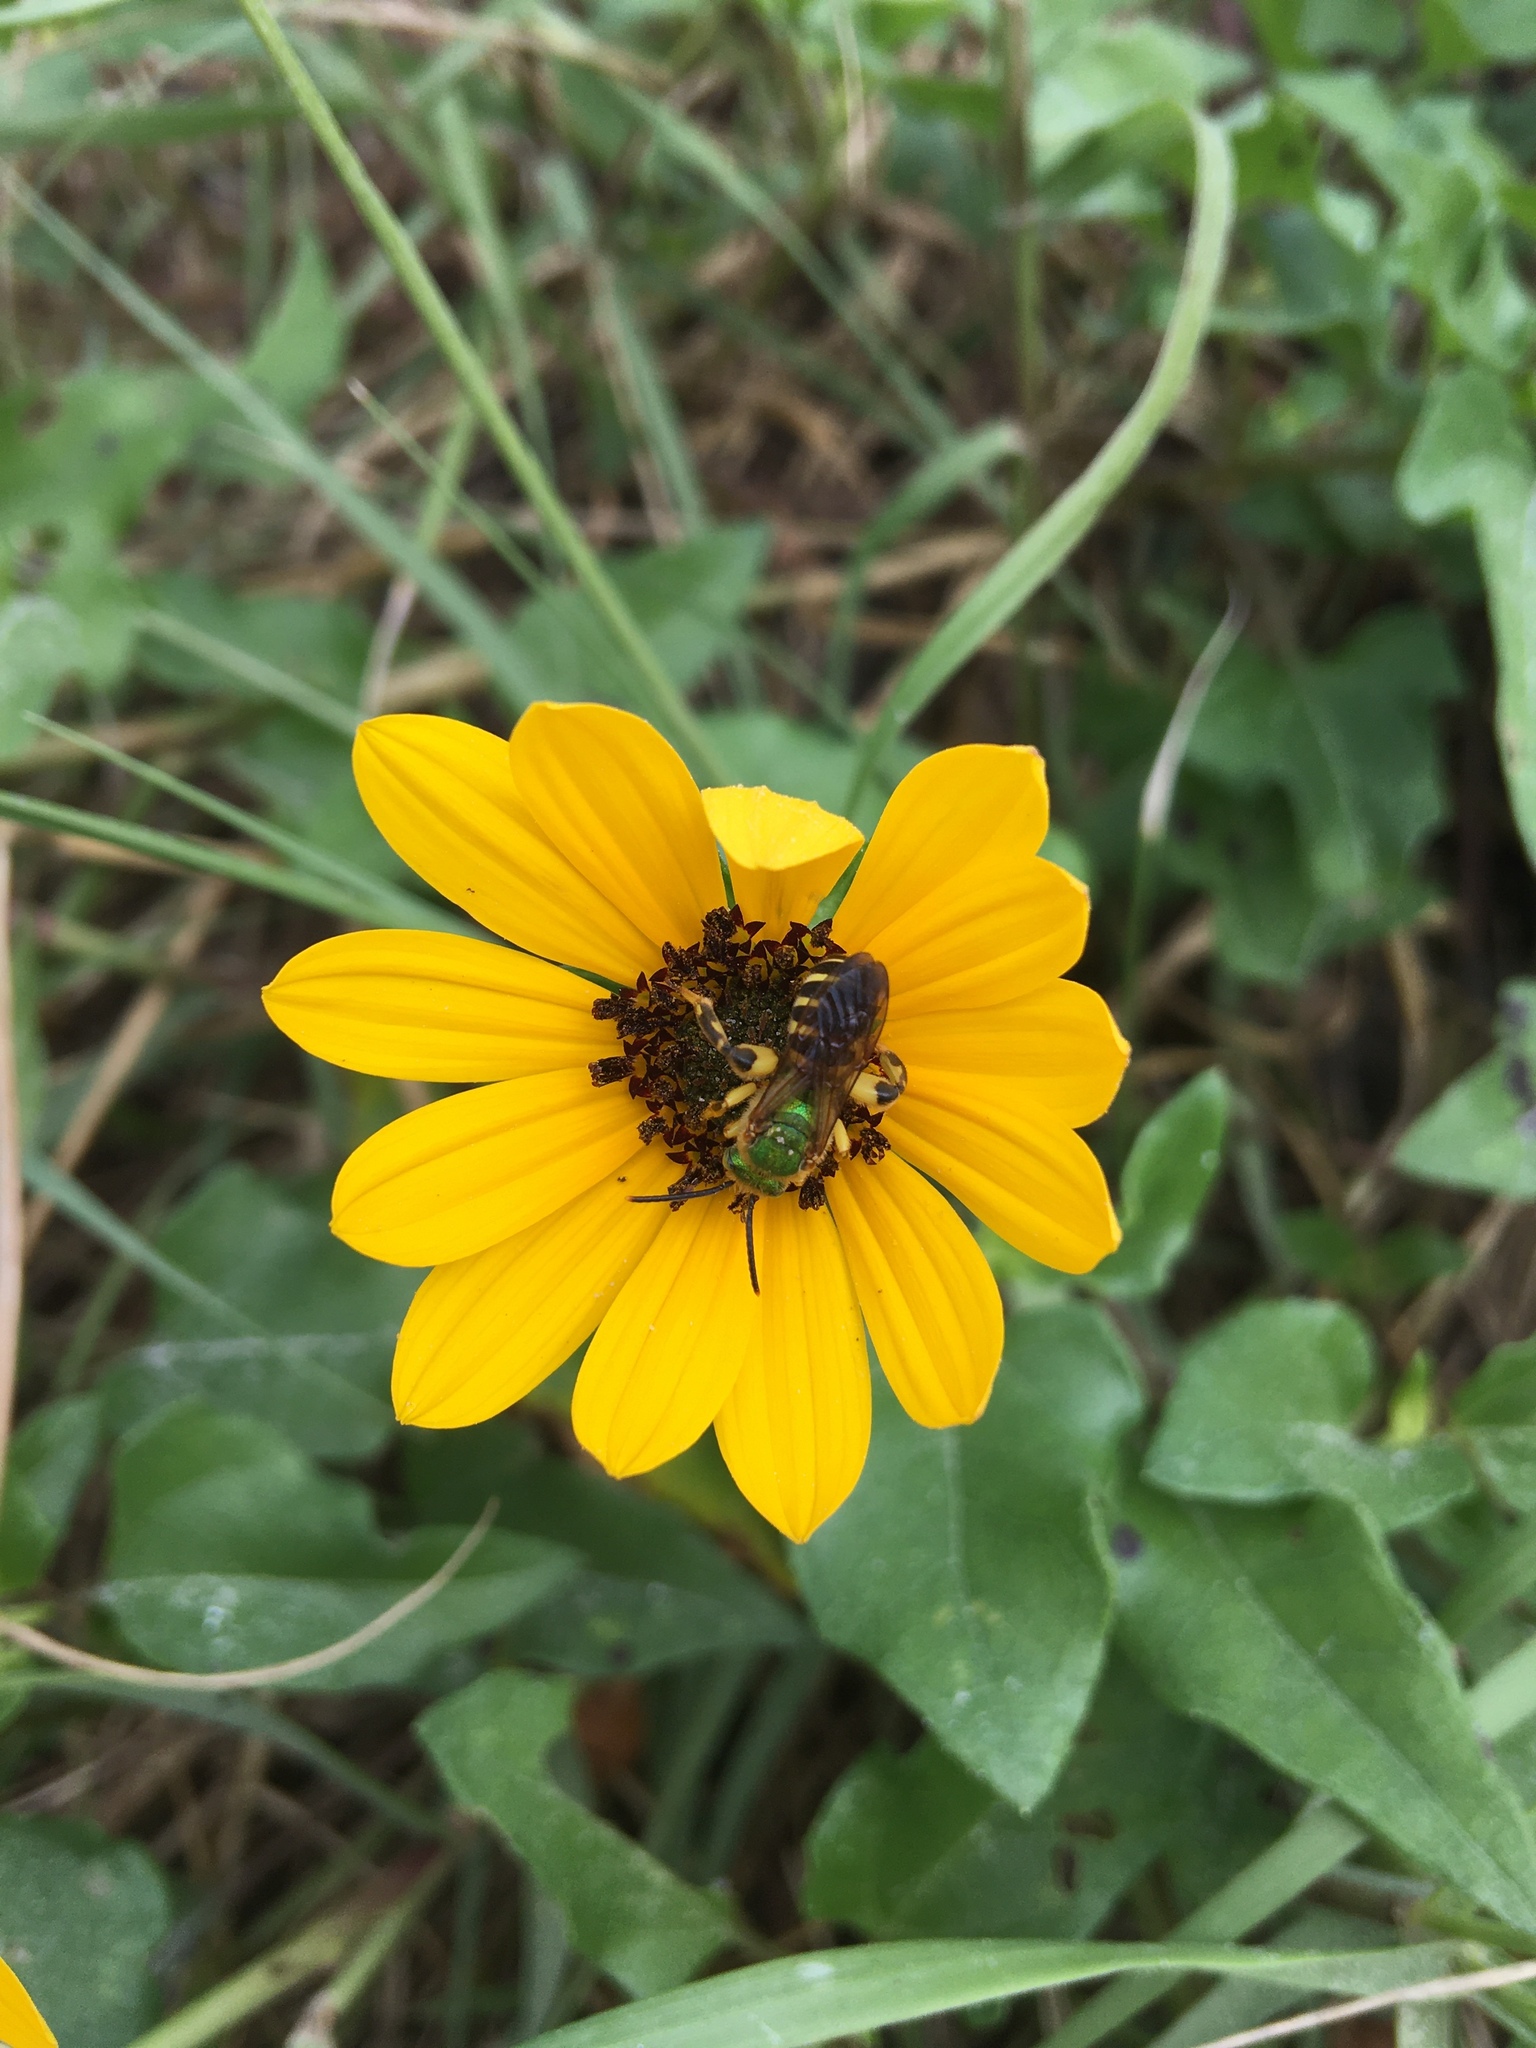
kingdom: Animalia
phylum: Arthropoda
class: Insecta
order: Hymenoptera
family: Halictidae
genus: Agapostemon
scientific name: Agapostemon splendens
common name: Brown-winged striped sweat bee
